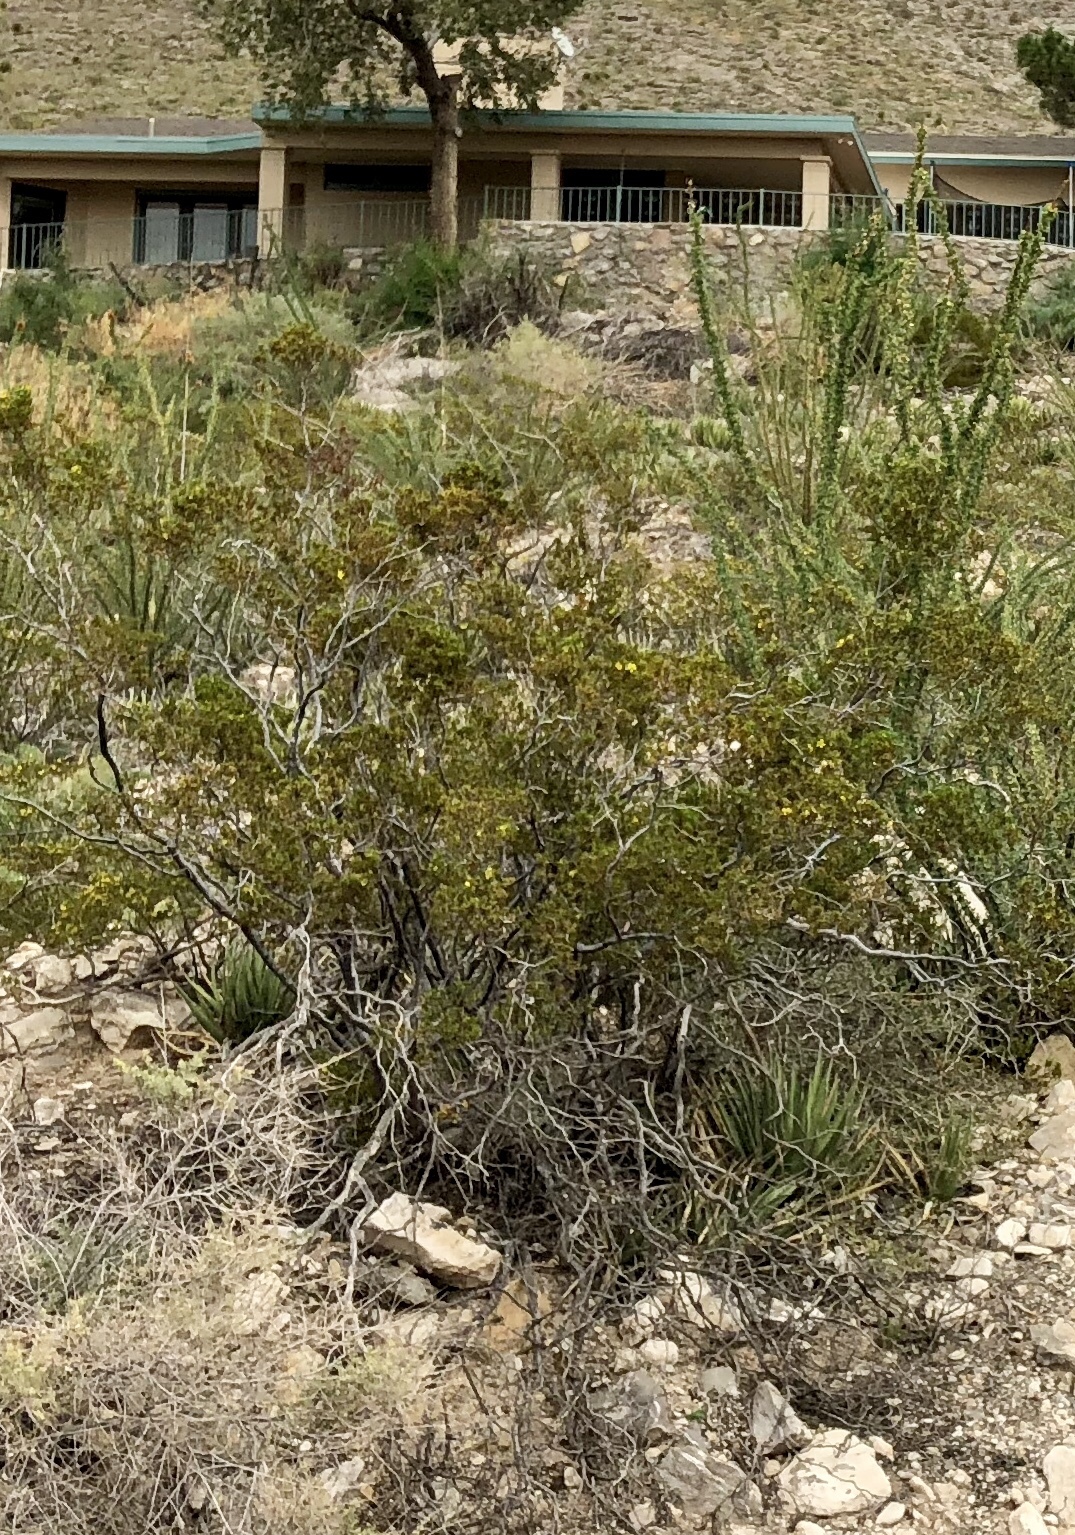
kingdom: Plantae
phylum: Tracheophyta
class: Magnoliopsida
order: Zygophyllales
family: Zygophyllaceae
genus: Larrea
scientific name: Larrea tridentata
